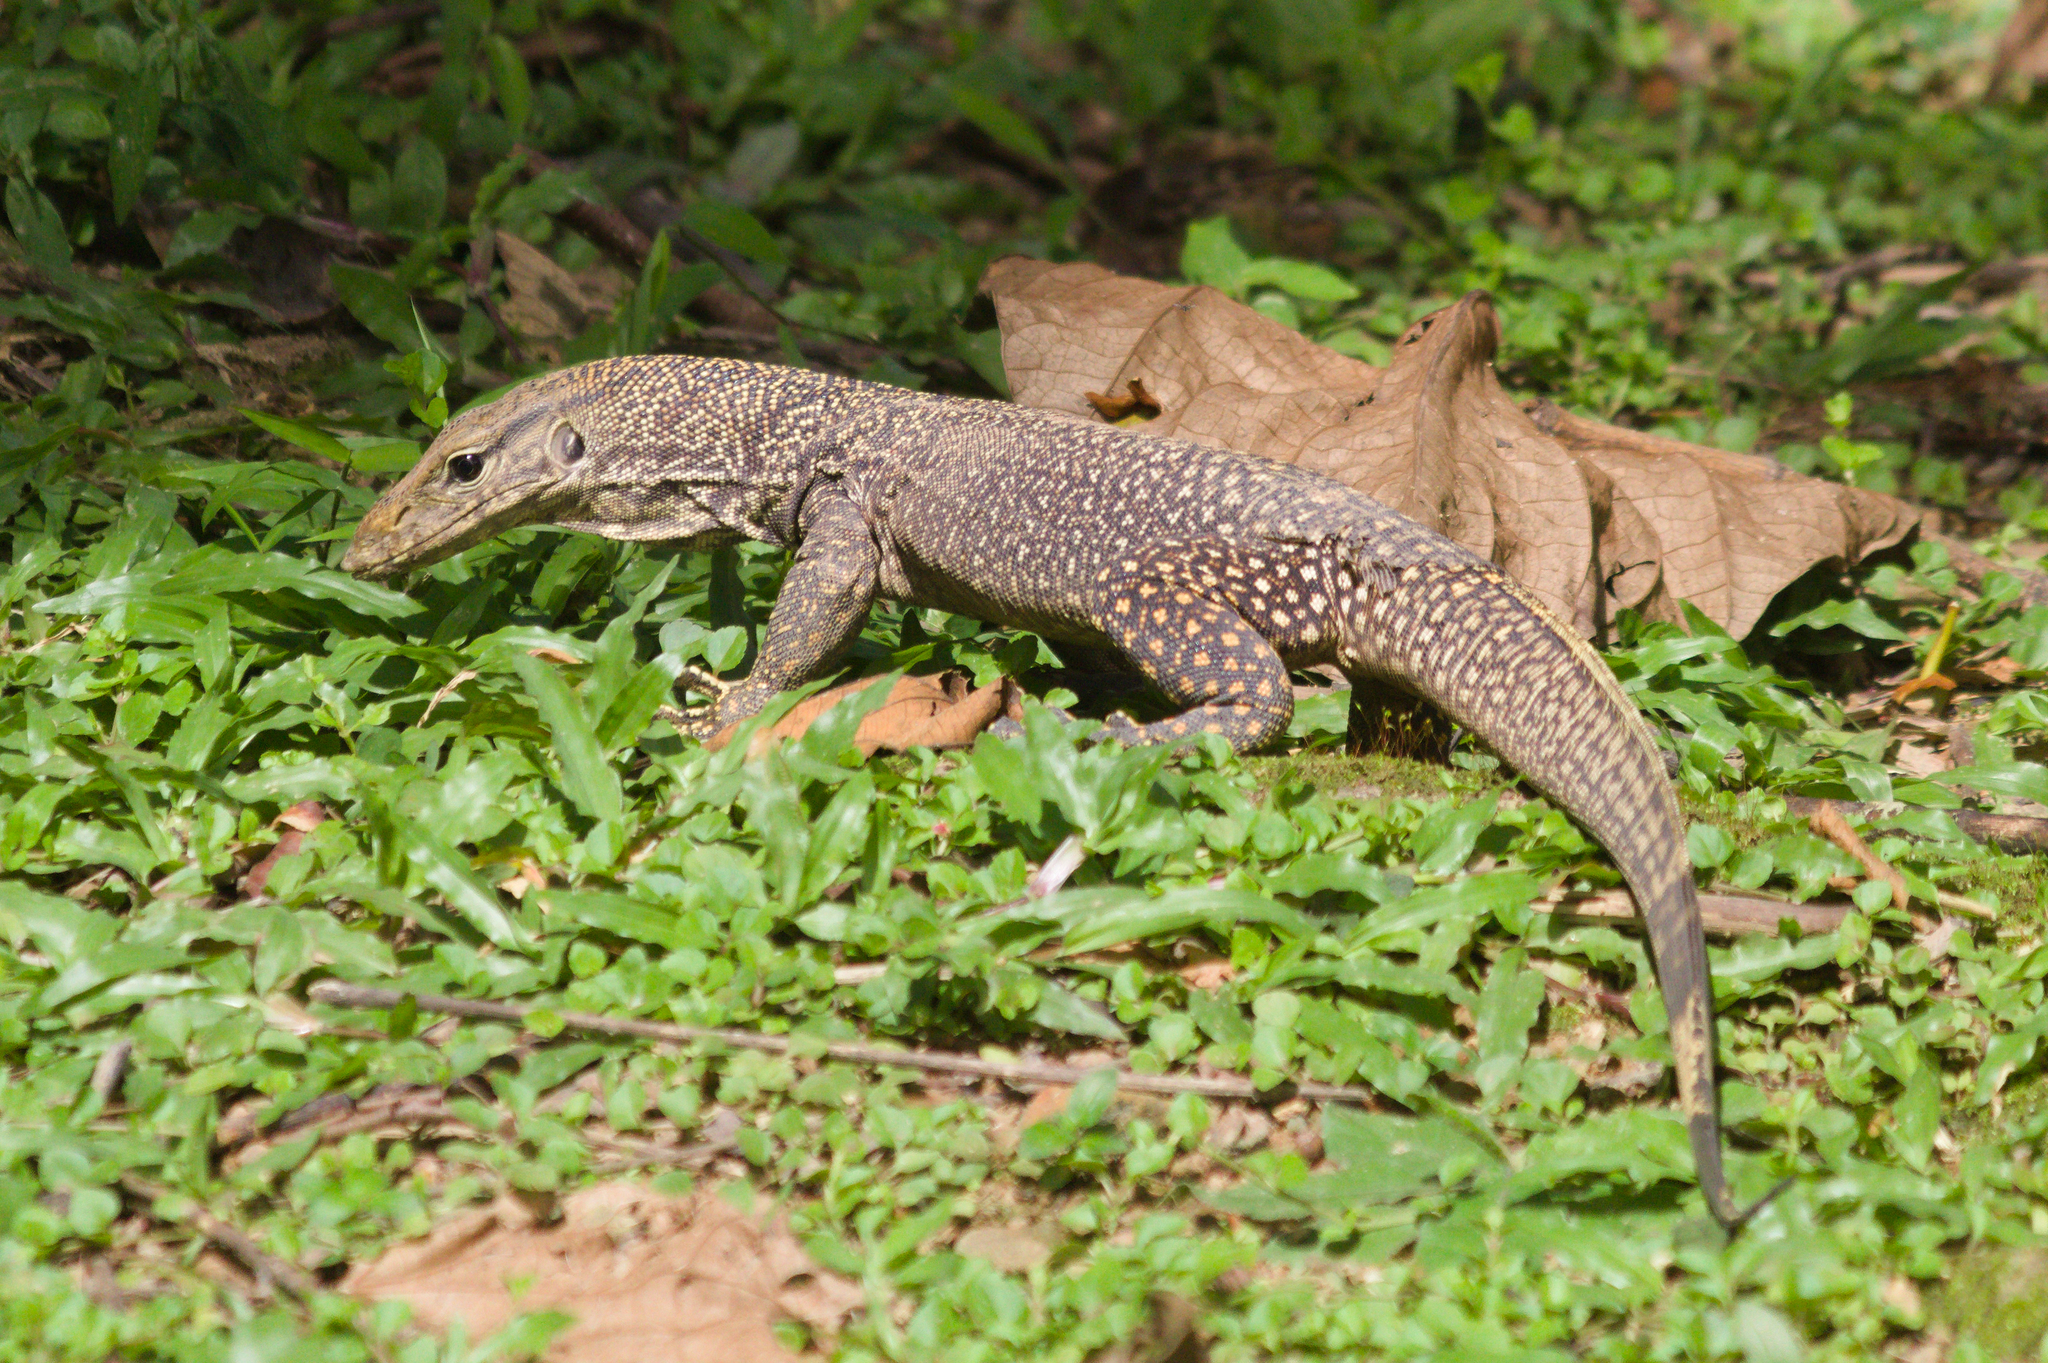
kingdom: Animalia
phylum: Chordata
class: Squamata
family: Varanidae
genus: Varanus
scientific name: Varanus nebulosus
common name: Clouded monitor
